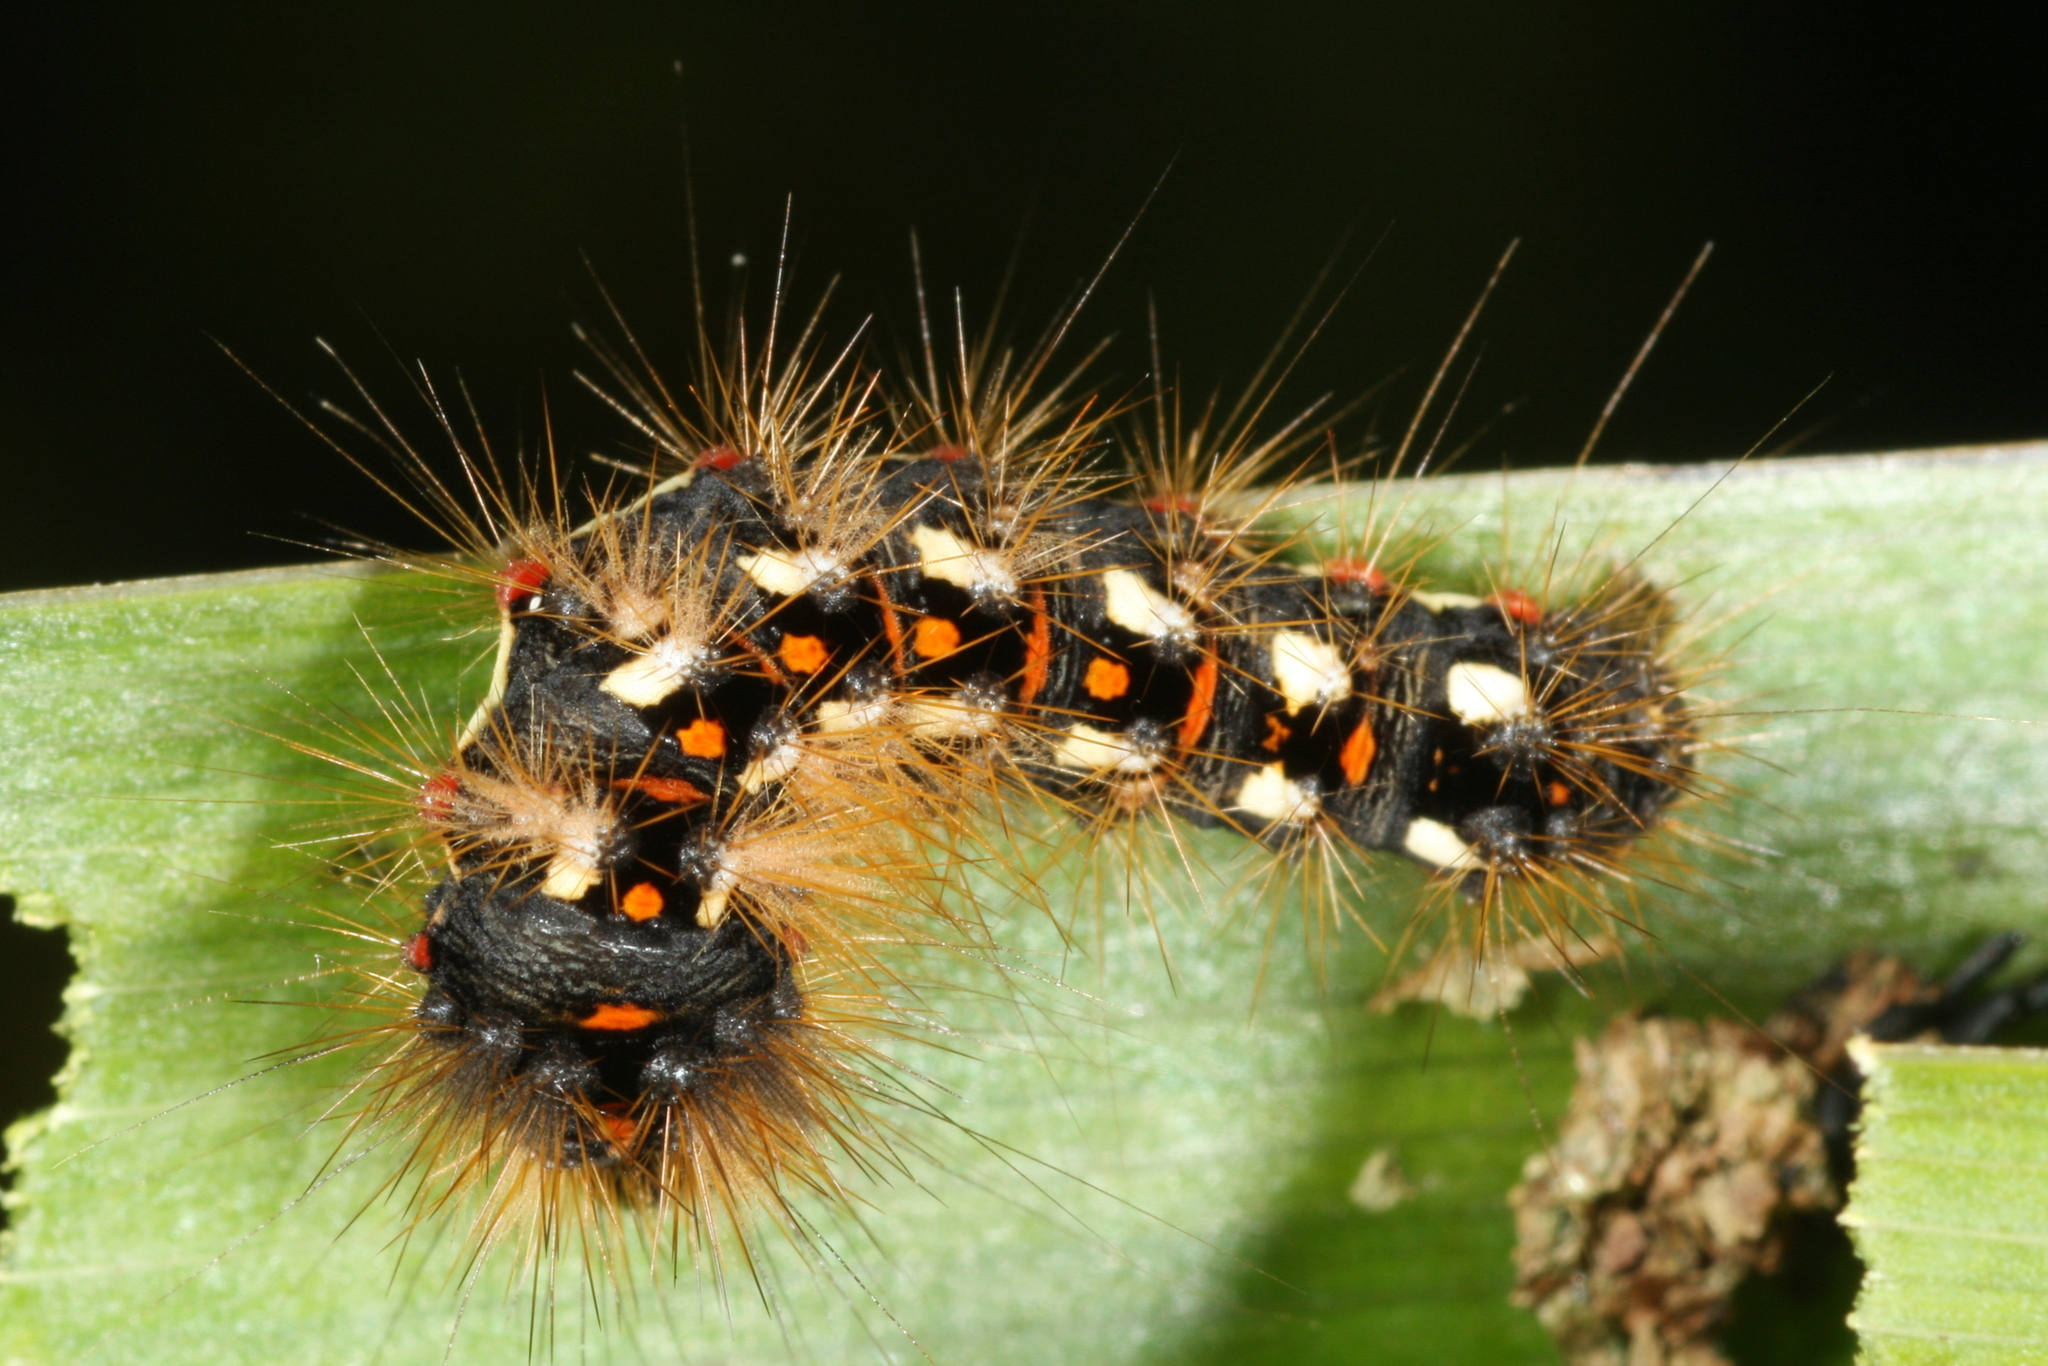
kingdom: Animalia
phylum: Arthropoda
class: Insecta
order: Lepidoptera
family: Noctuidae
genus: Acronicta
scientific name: Acronicta rumicis
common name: Knot grass
